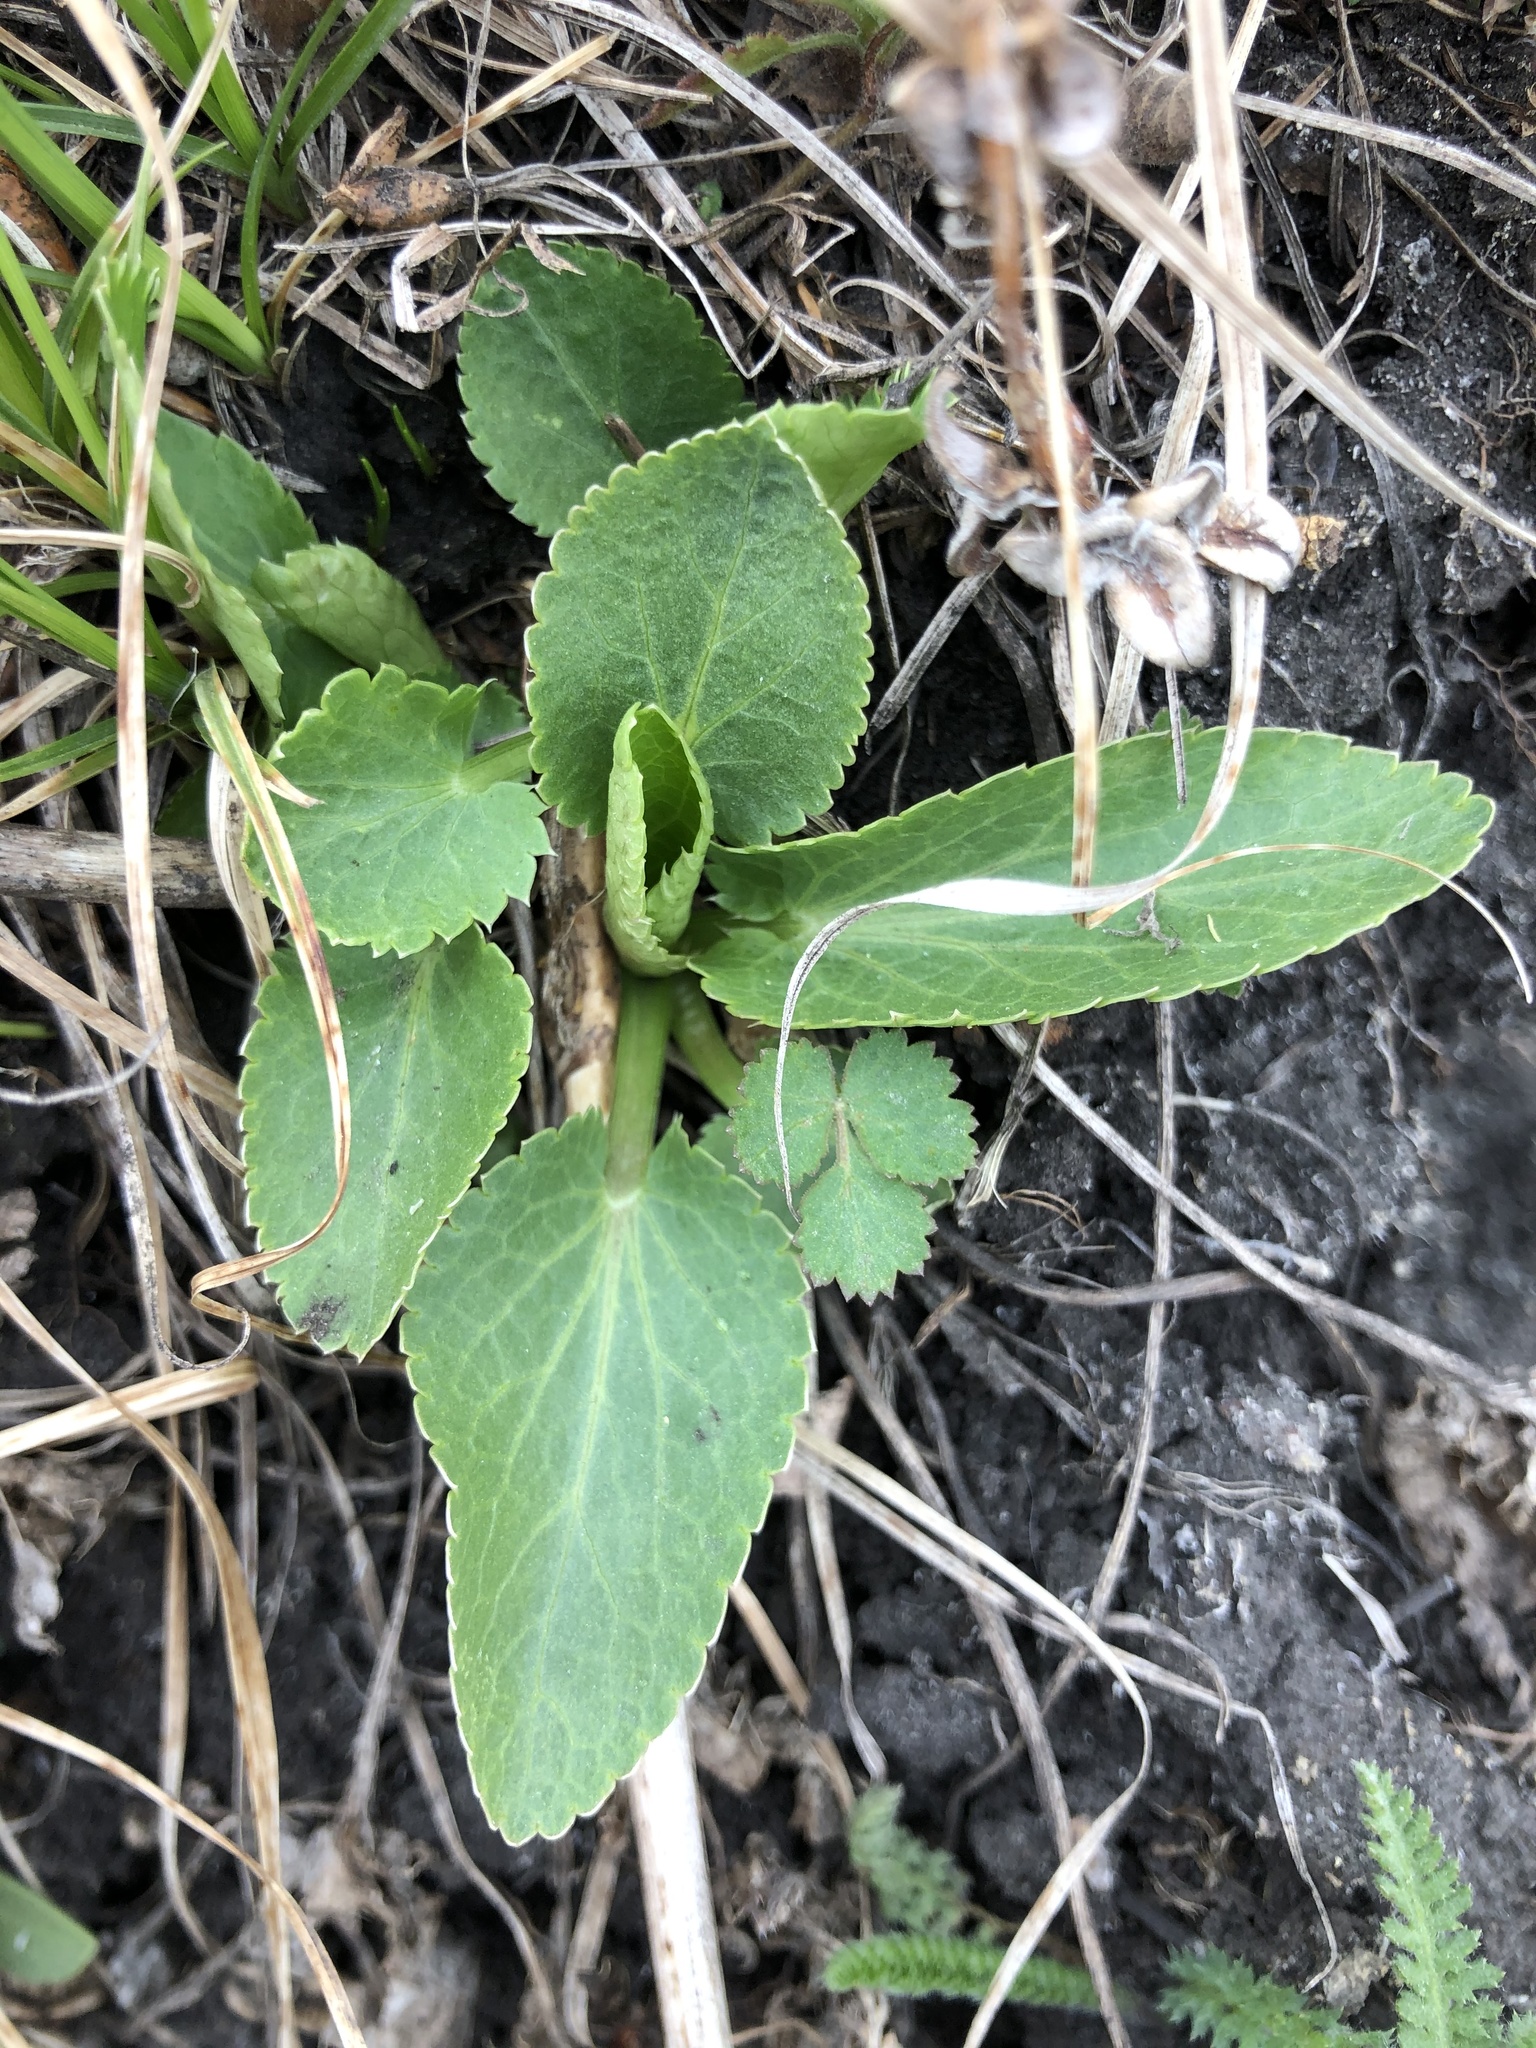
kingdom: Plantae
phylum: Tracheophyta
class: Magnoliopsida
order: Apiales
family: Apiaceae
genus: Eryngium
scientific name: Eryngium planum
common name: Blue eryngo
